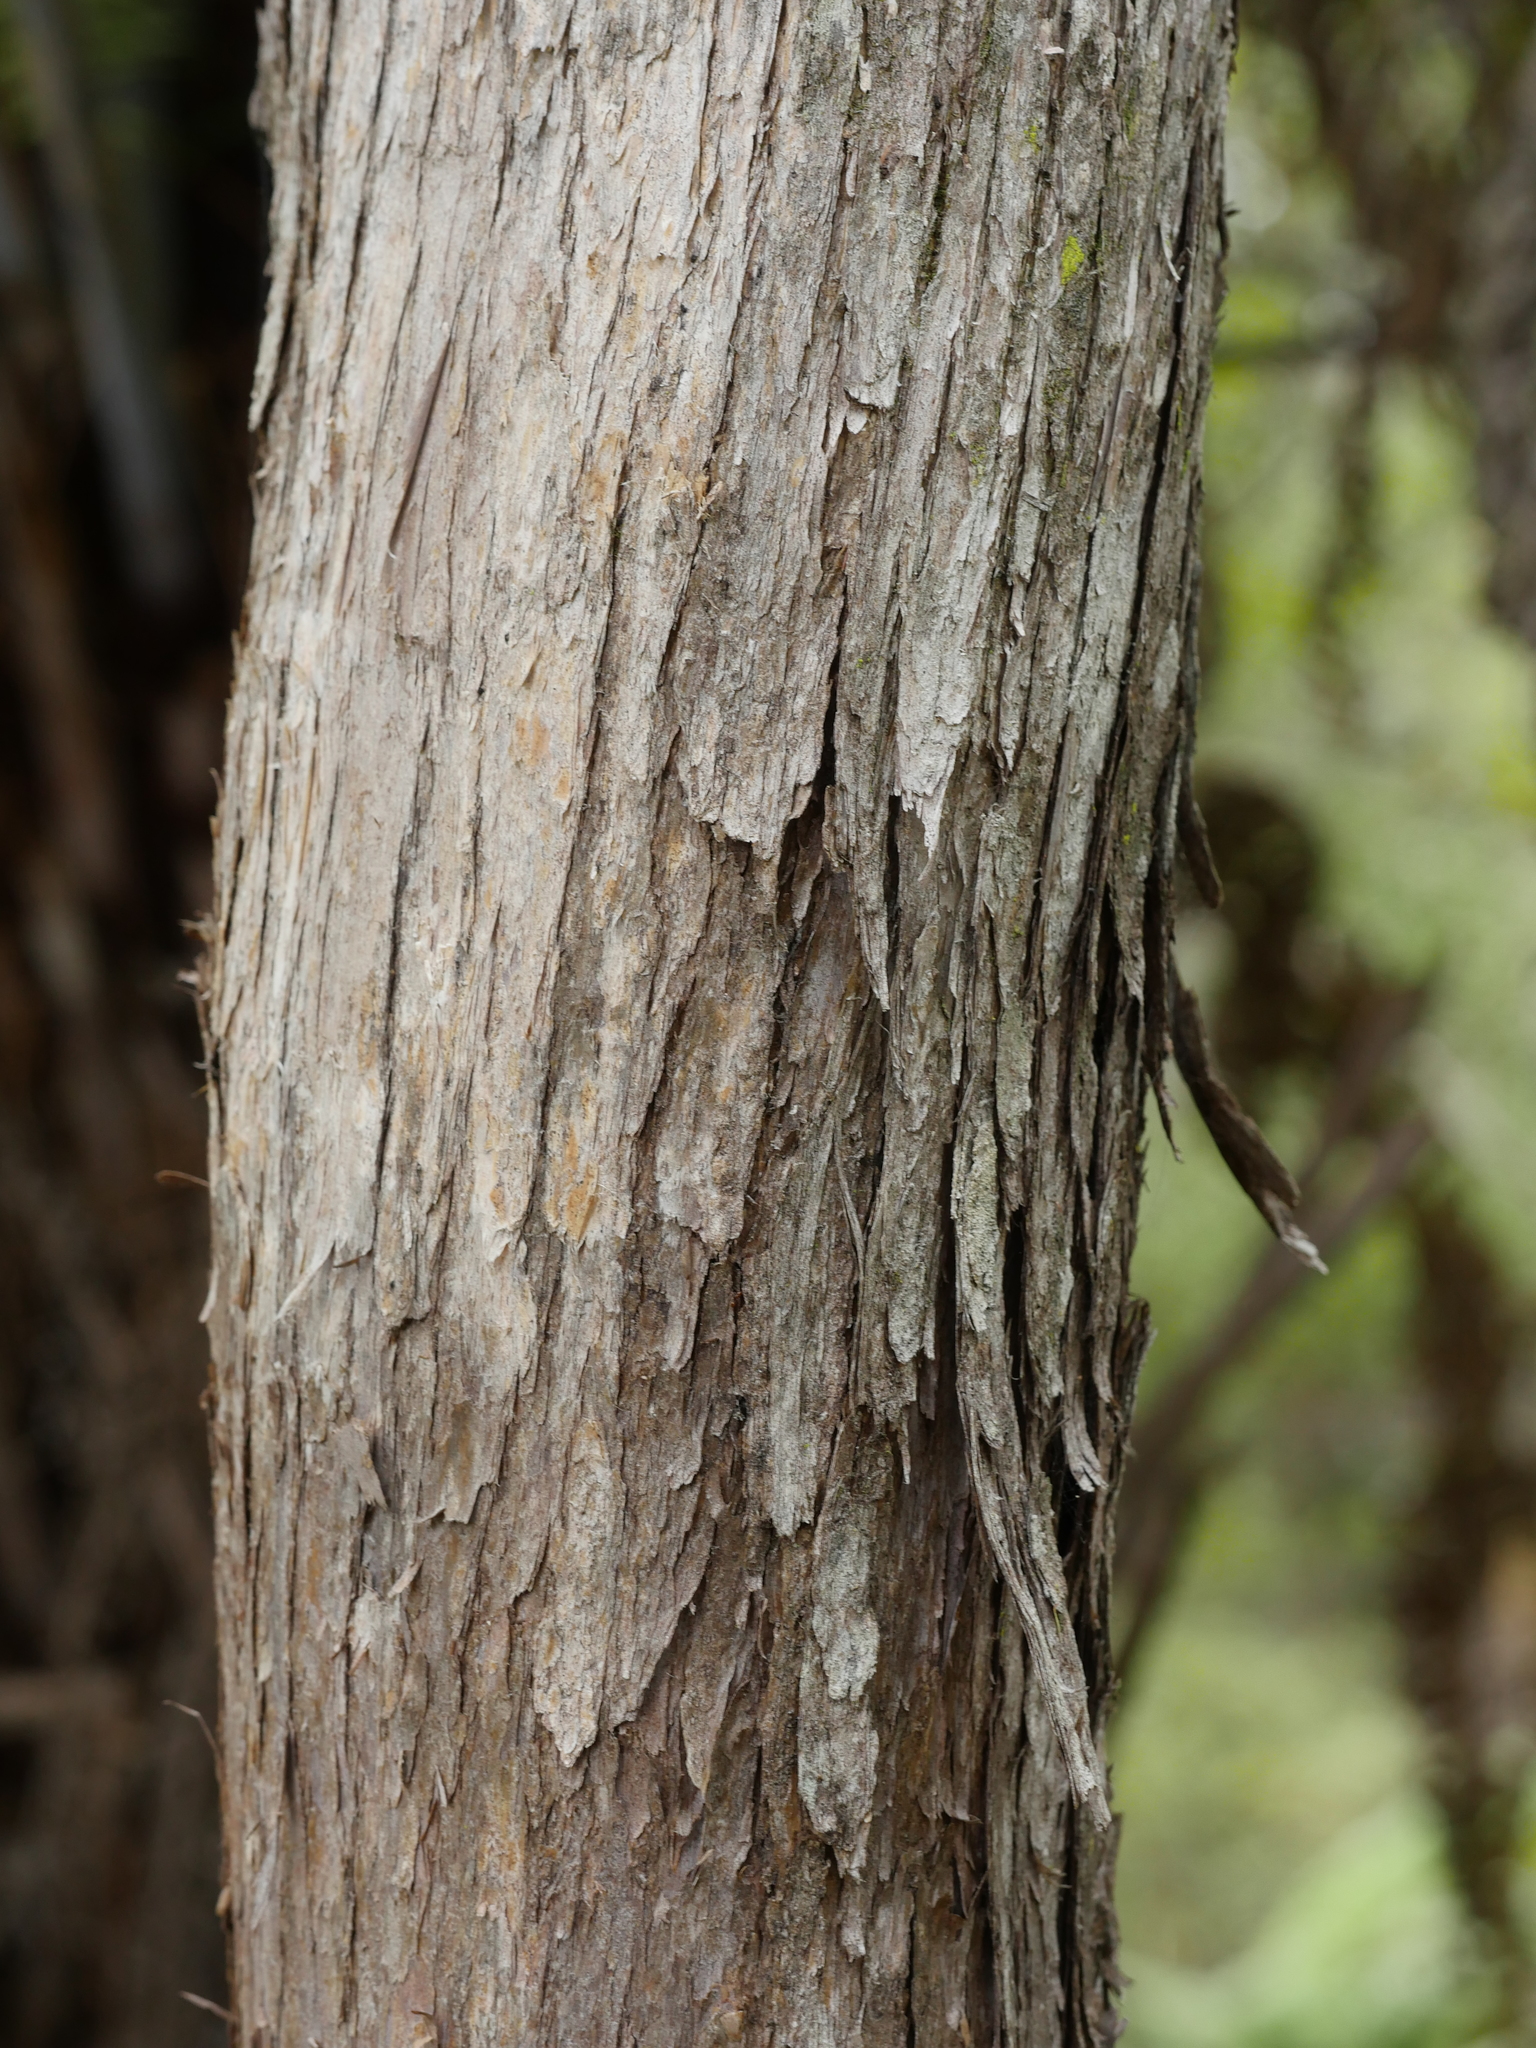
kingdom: Plantae
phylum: Tracheophyta
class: Magnoliopsida
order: Myrtales
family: Myrtaceae
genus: Kunzea
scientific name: Kunzea robusta
